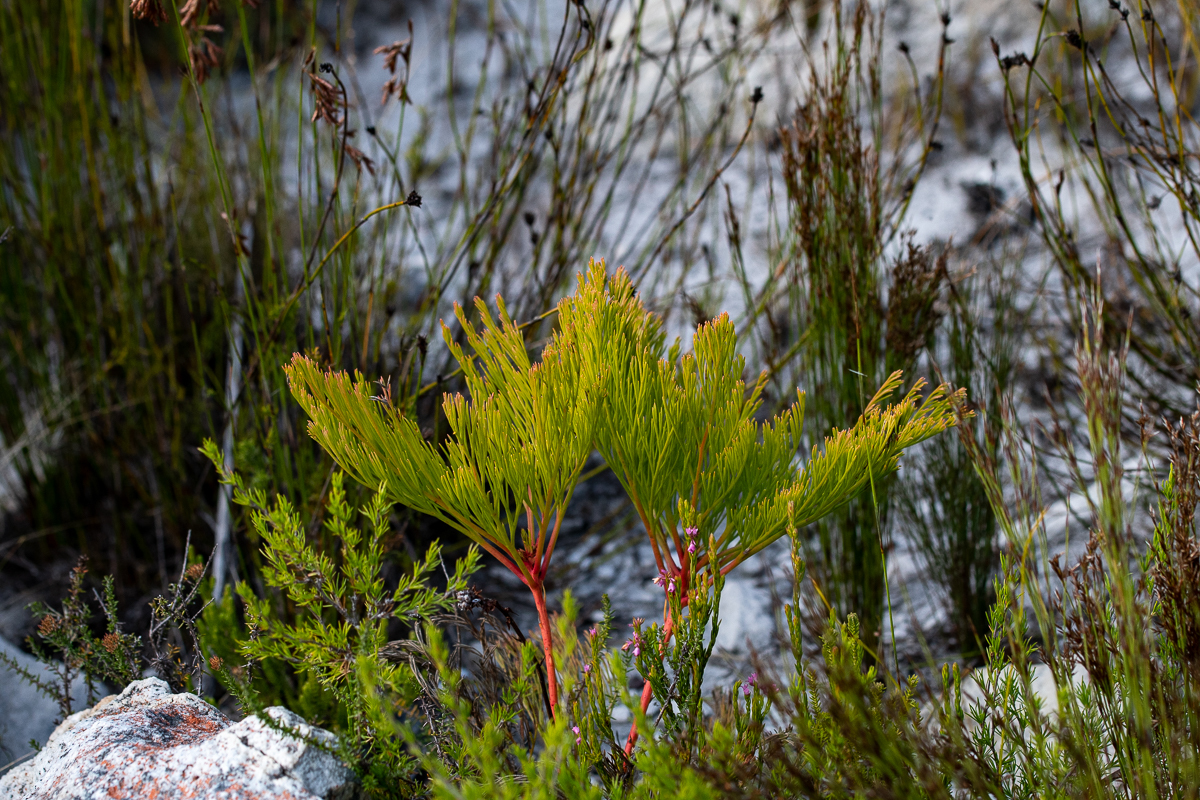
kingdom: Plantae
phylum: Tracheophyta
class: Magnoliopsida
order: Proteales
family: Proteaceae
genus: Serruria
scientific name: Serruria elongata
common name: Long-stalk spiderhead
